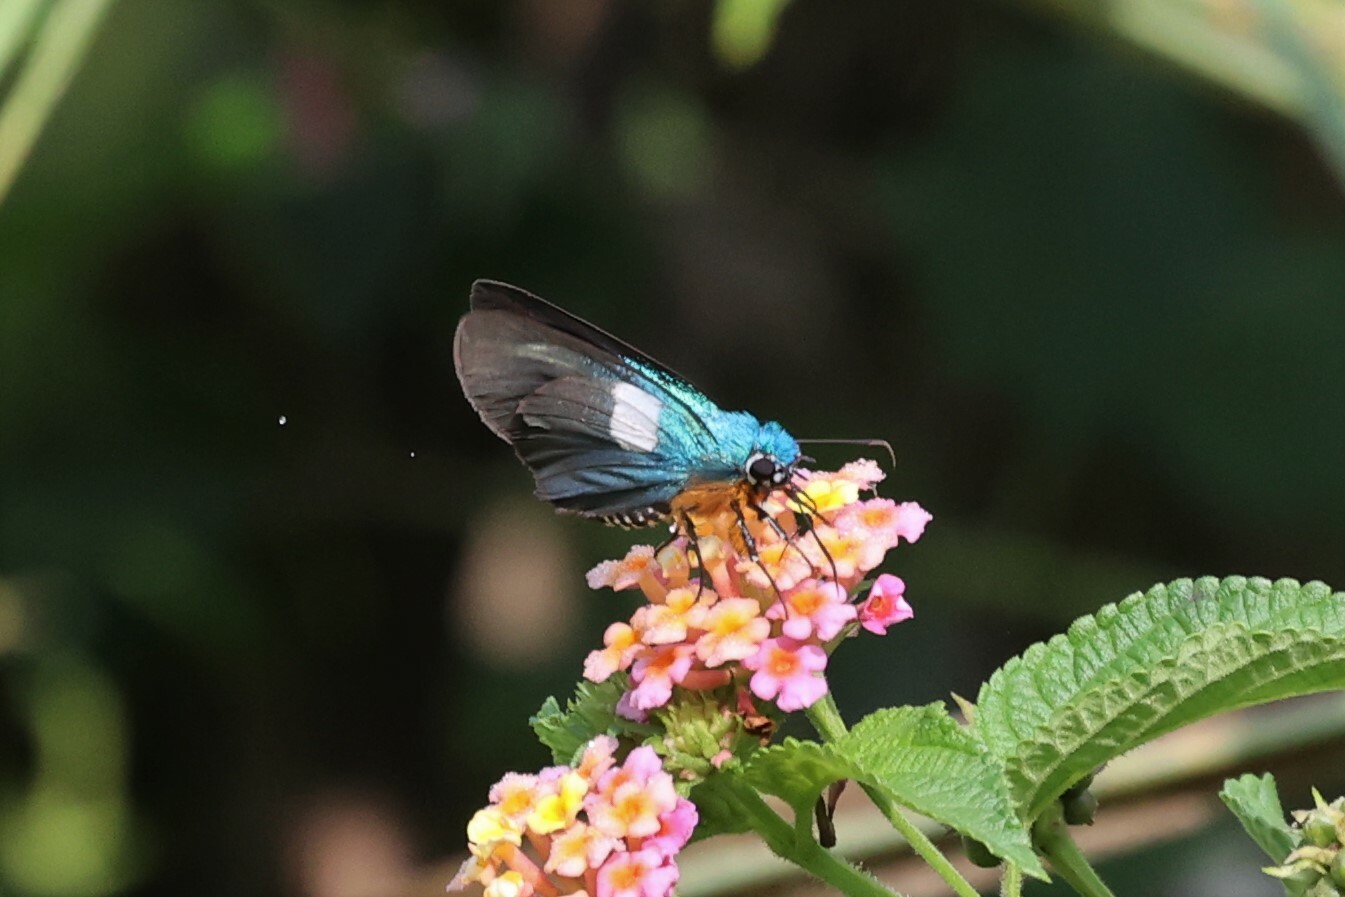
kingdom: Animalia
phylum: Arthropoda
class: Insecta
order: Lepidoptera
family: Hesperiidae
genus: Coeliades
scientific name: Coeliades chalybe
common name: Blue policeman
